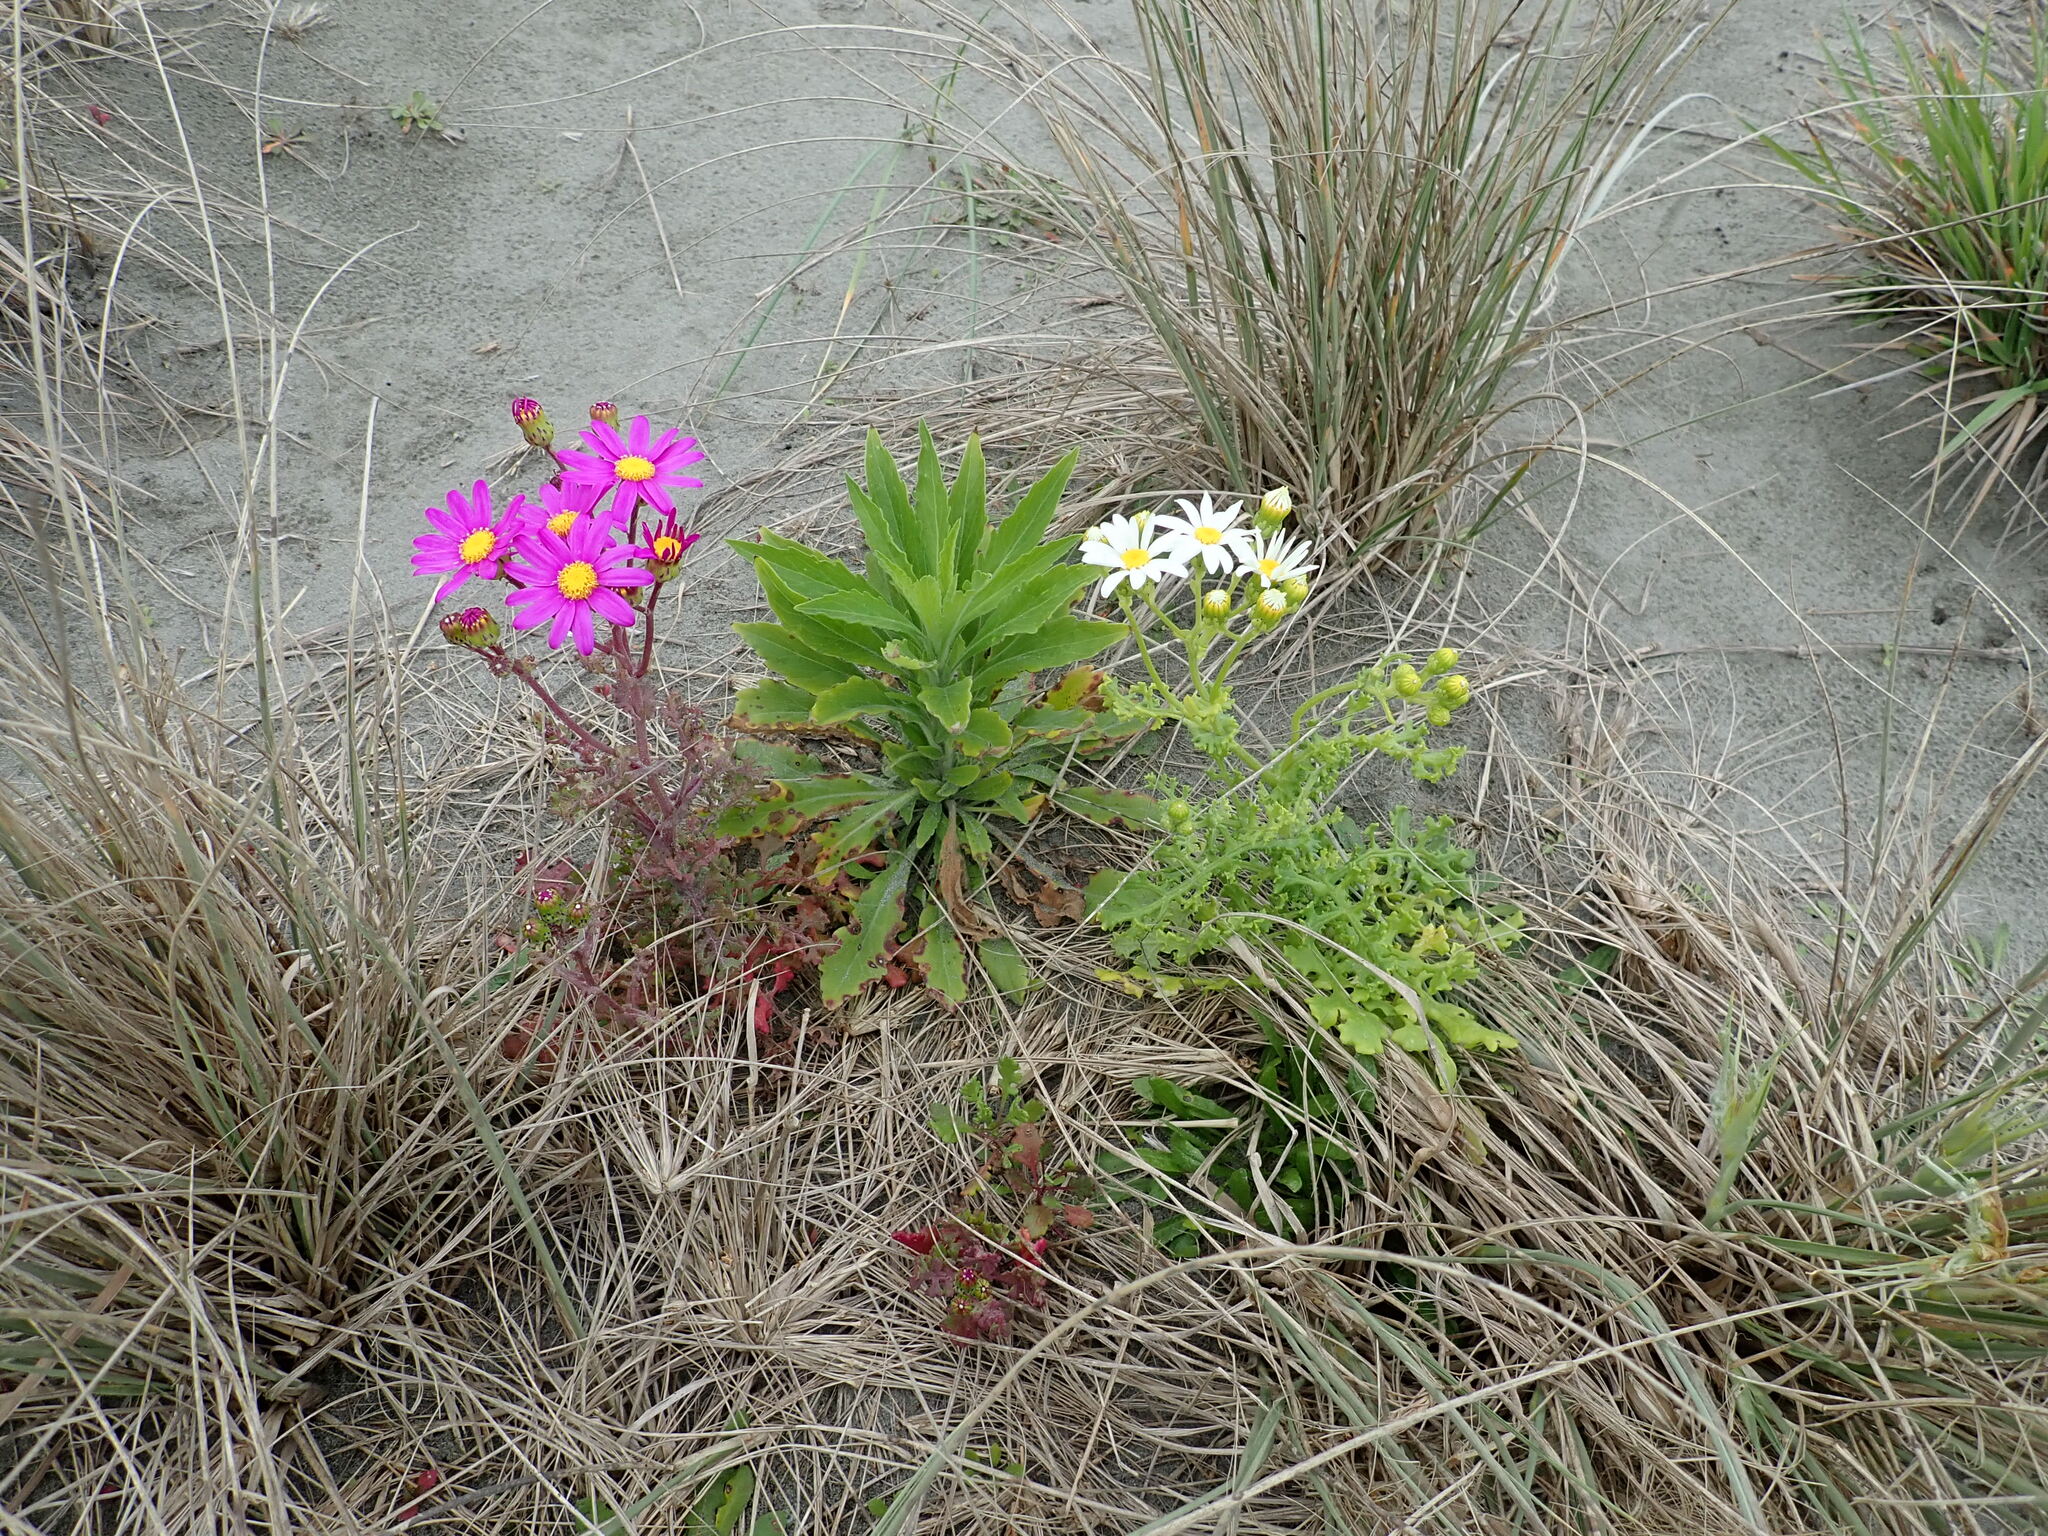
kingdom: Plantae
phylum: Tracheophyta
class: Magnoliopsida
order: Asterales
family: Asteraceae
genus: Senecio
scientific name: Senecio elegans
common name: Purple groundsel
